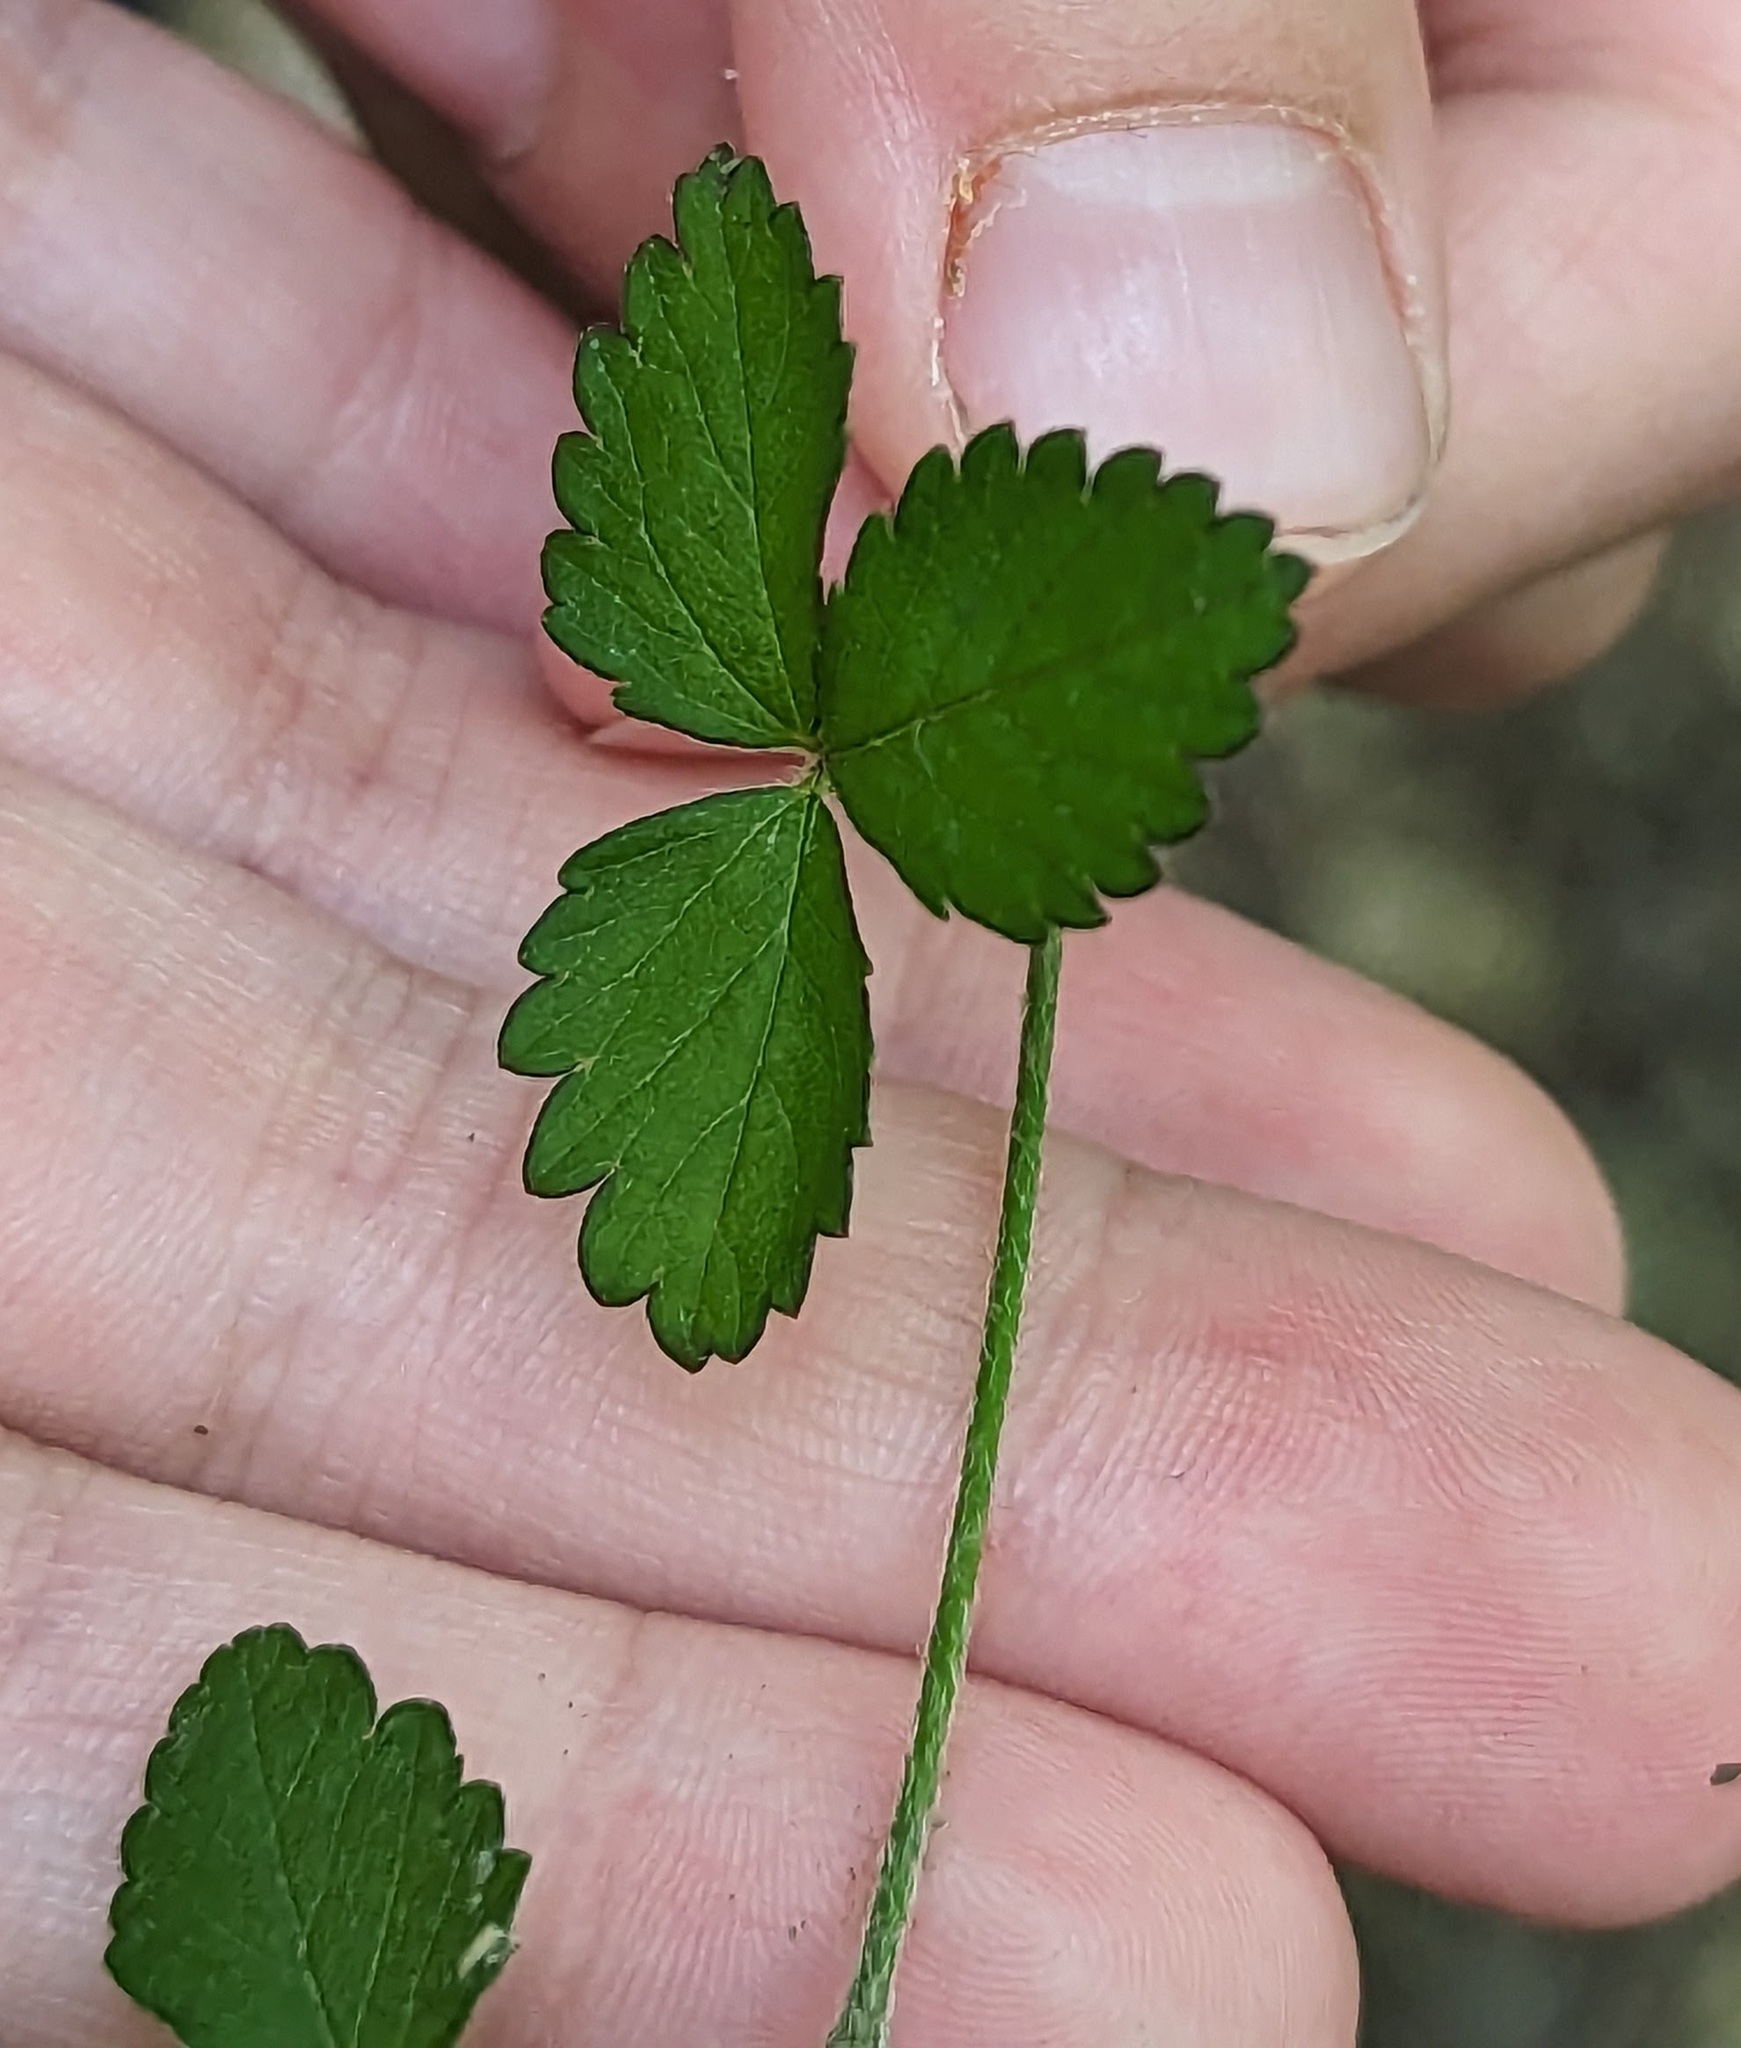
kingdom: Plantae
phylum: Tracheophyta
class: Magnoliopsida
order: Rosales
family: Rosaceae
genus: Potentilla
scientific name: Potentilla indica
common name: Yellow-flowered strawberry
